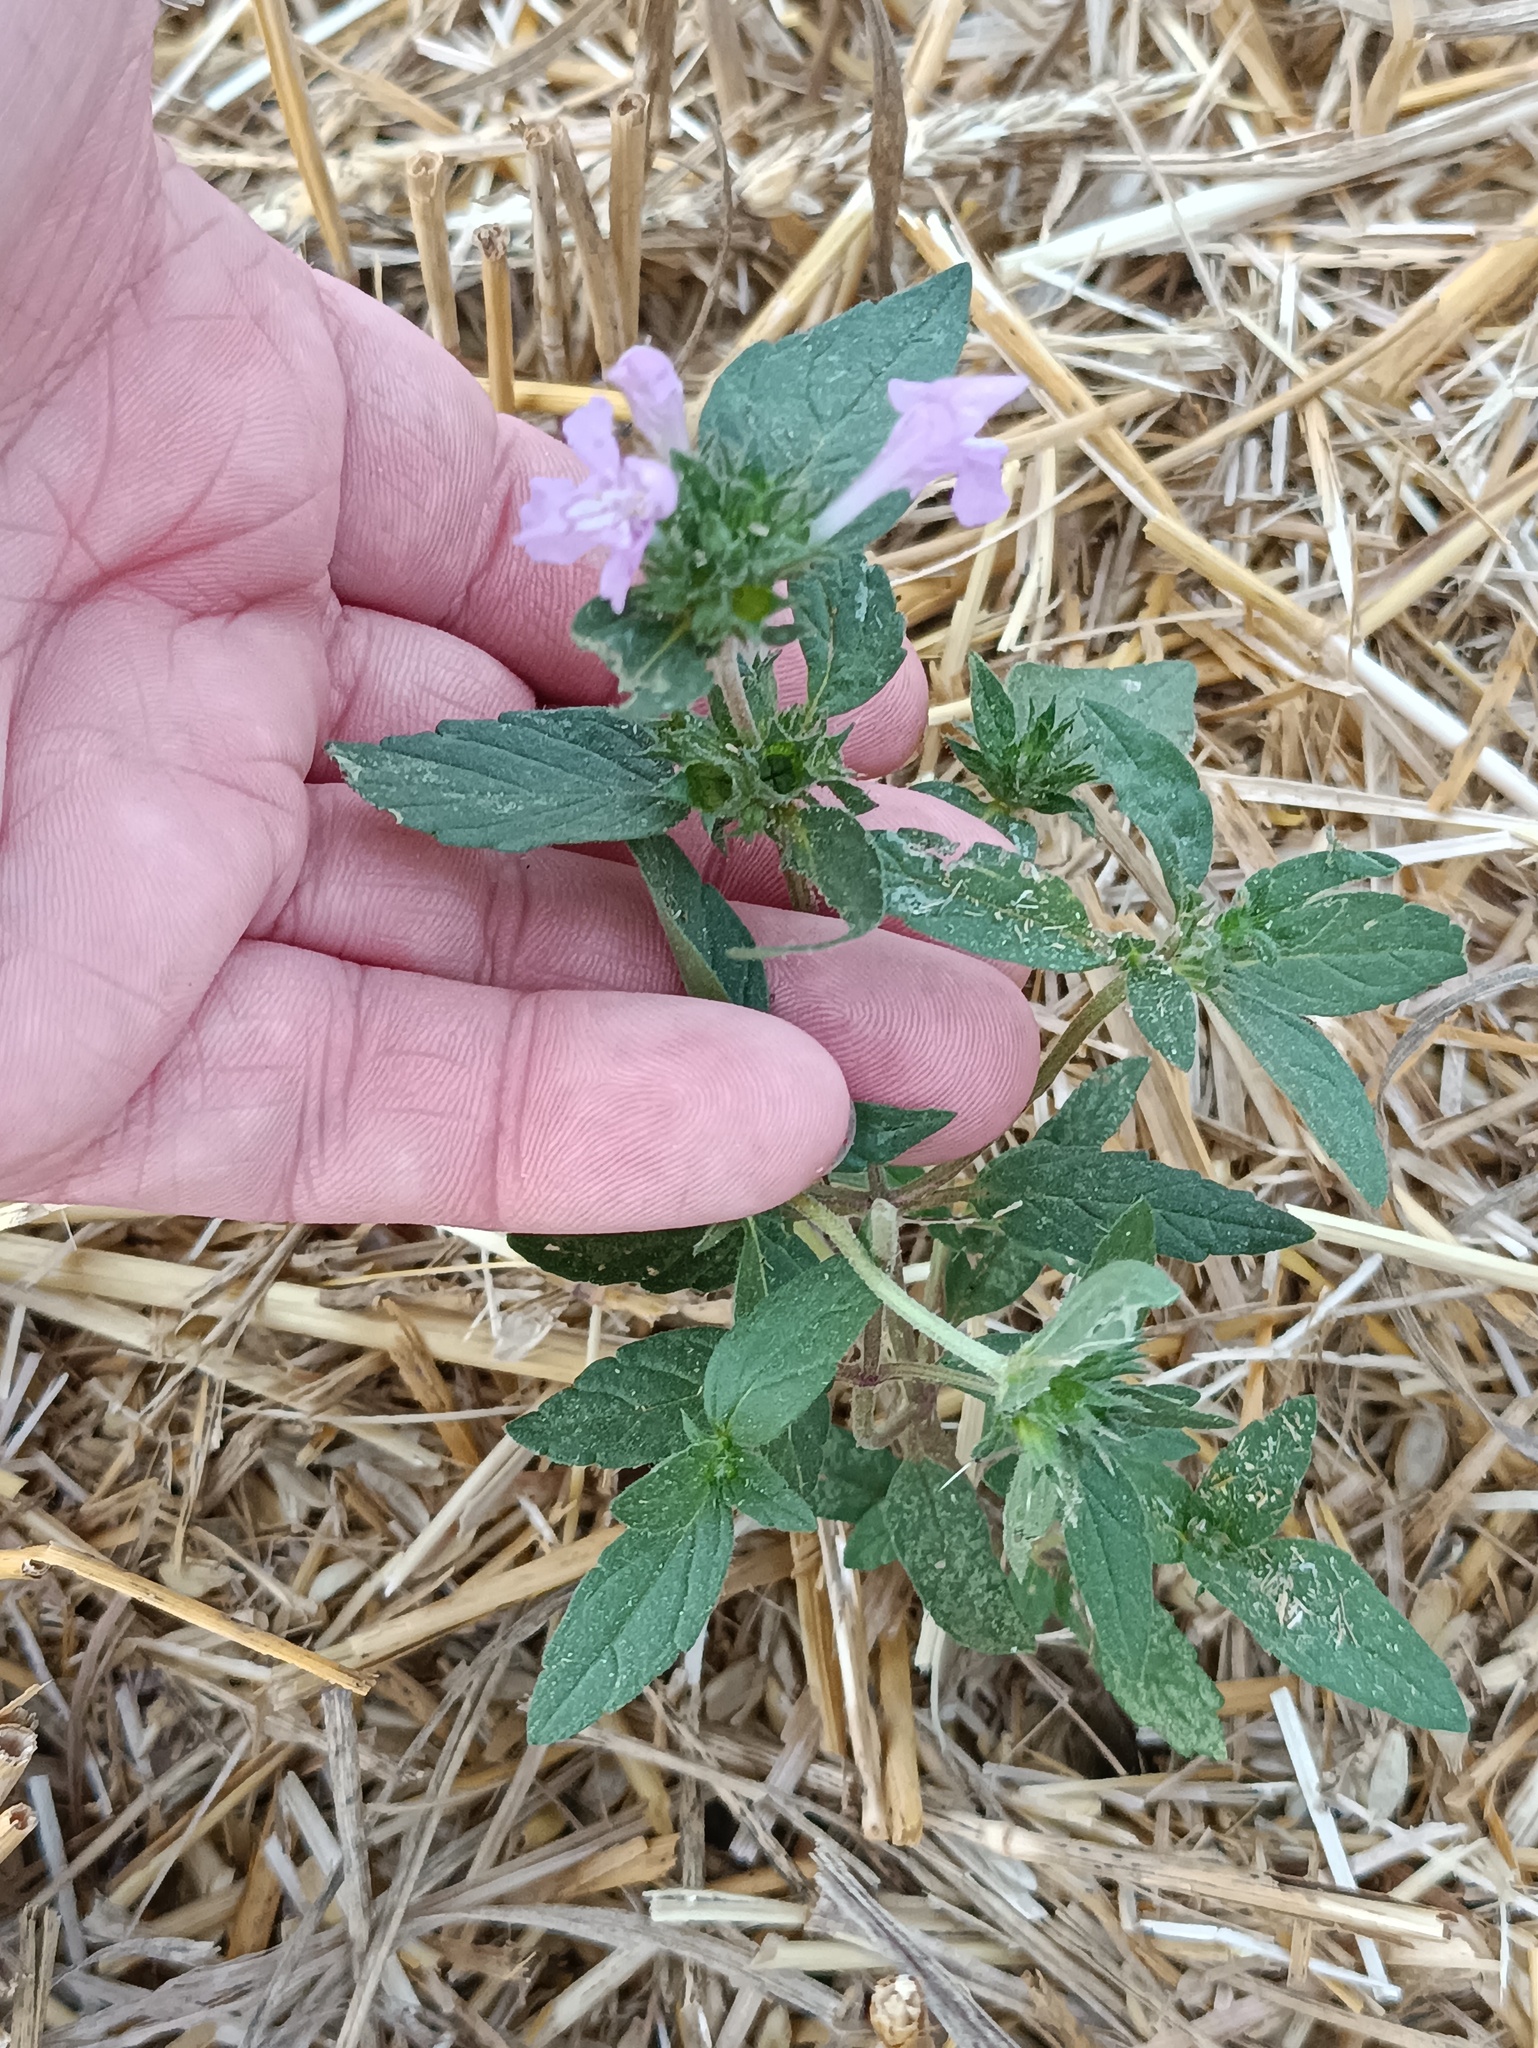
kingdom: Plantae
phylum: Tracheophyta
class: Magnoliopsida
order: Lamiales
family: Lamiaceae
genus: Galeopsis
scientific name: Galeopsis ladanum
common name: Broad-leaved hemp-nettle
